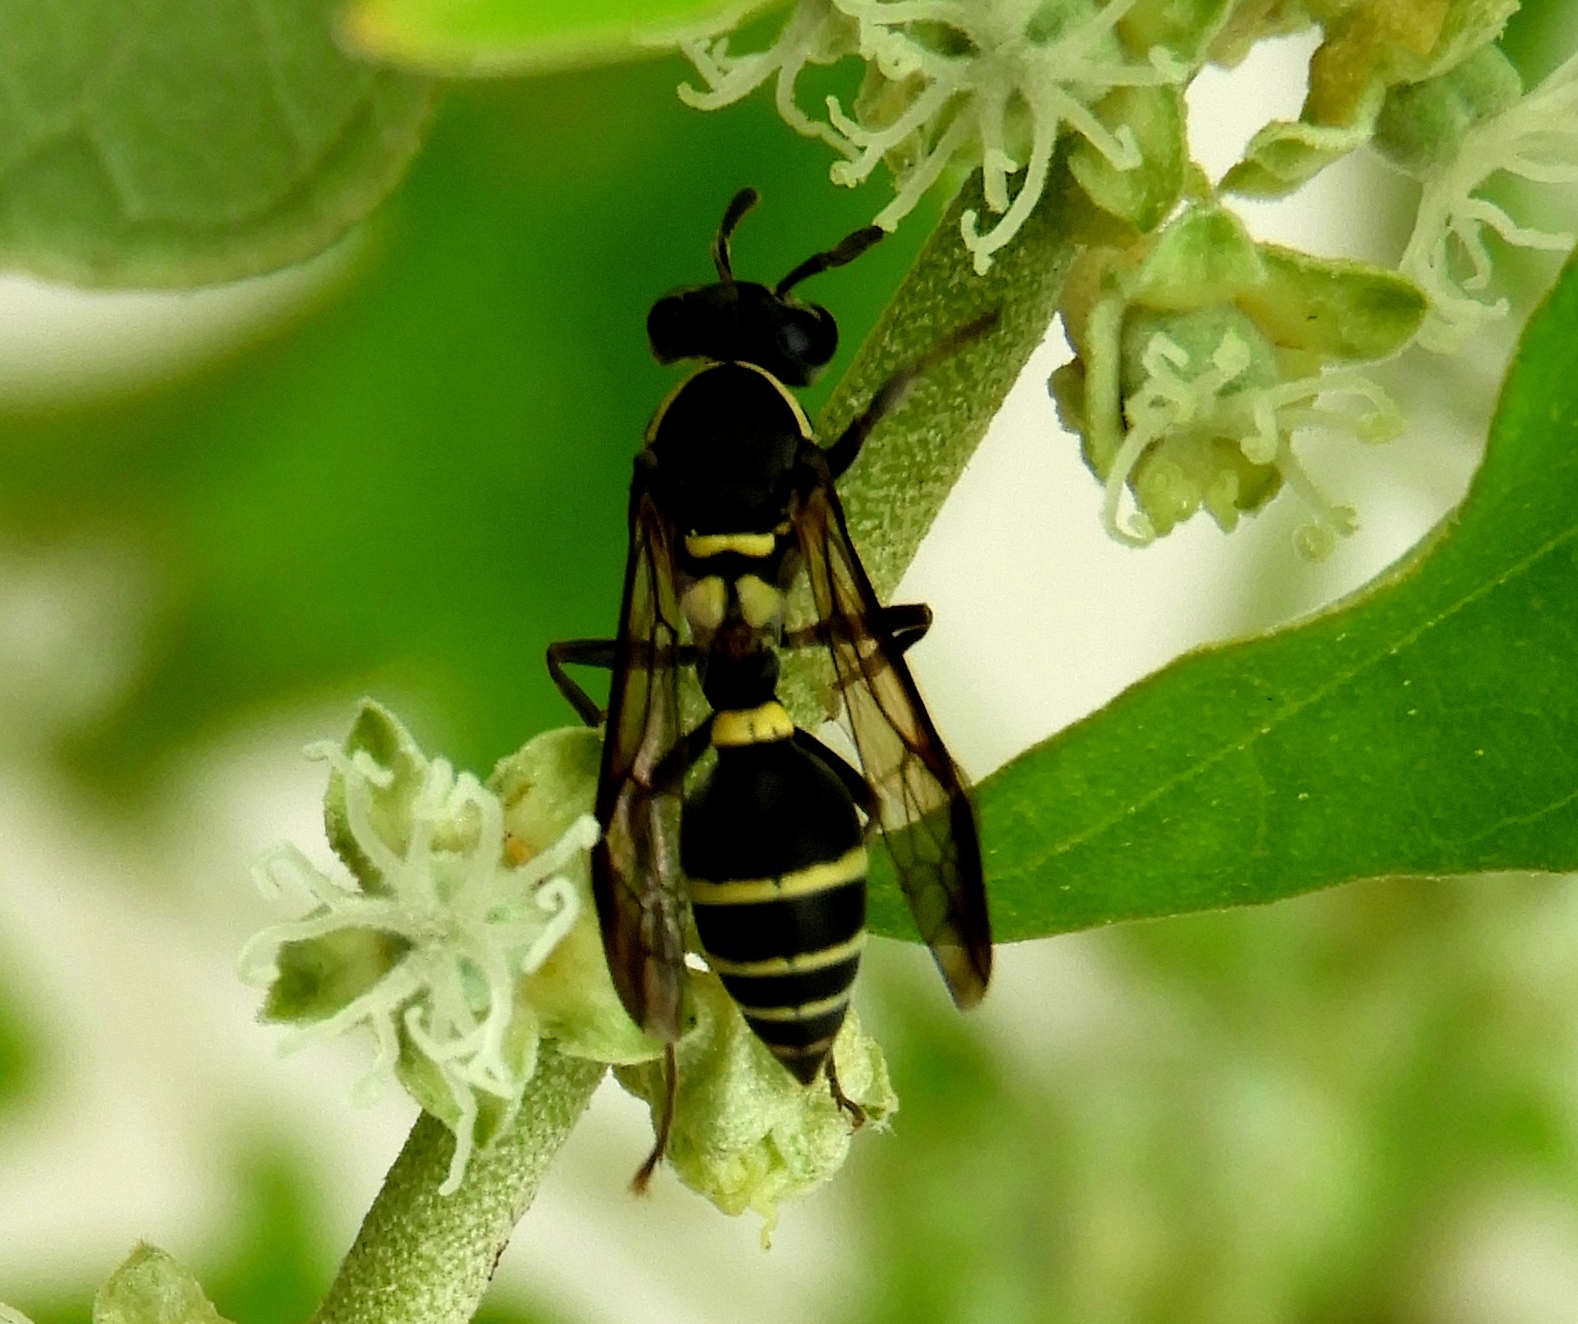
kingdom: Animalia
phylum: Arthropoda
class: Insecta
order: Hymenoptera
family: Vespidae
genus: Myrapetra
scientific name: Myrapetra
